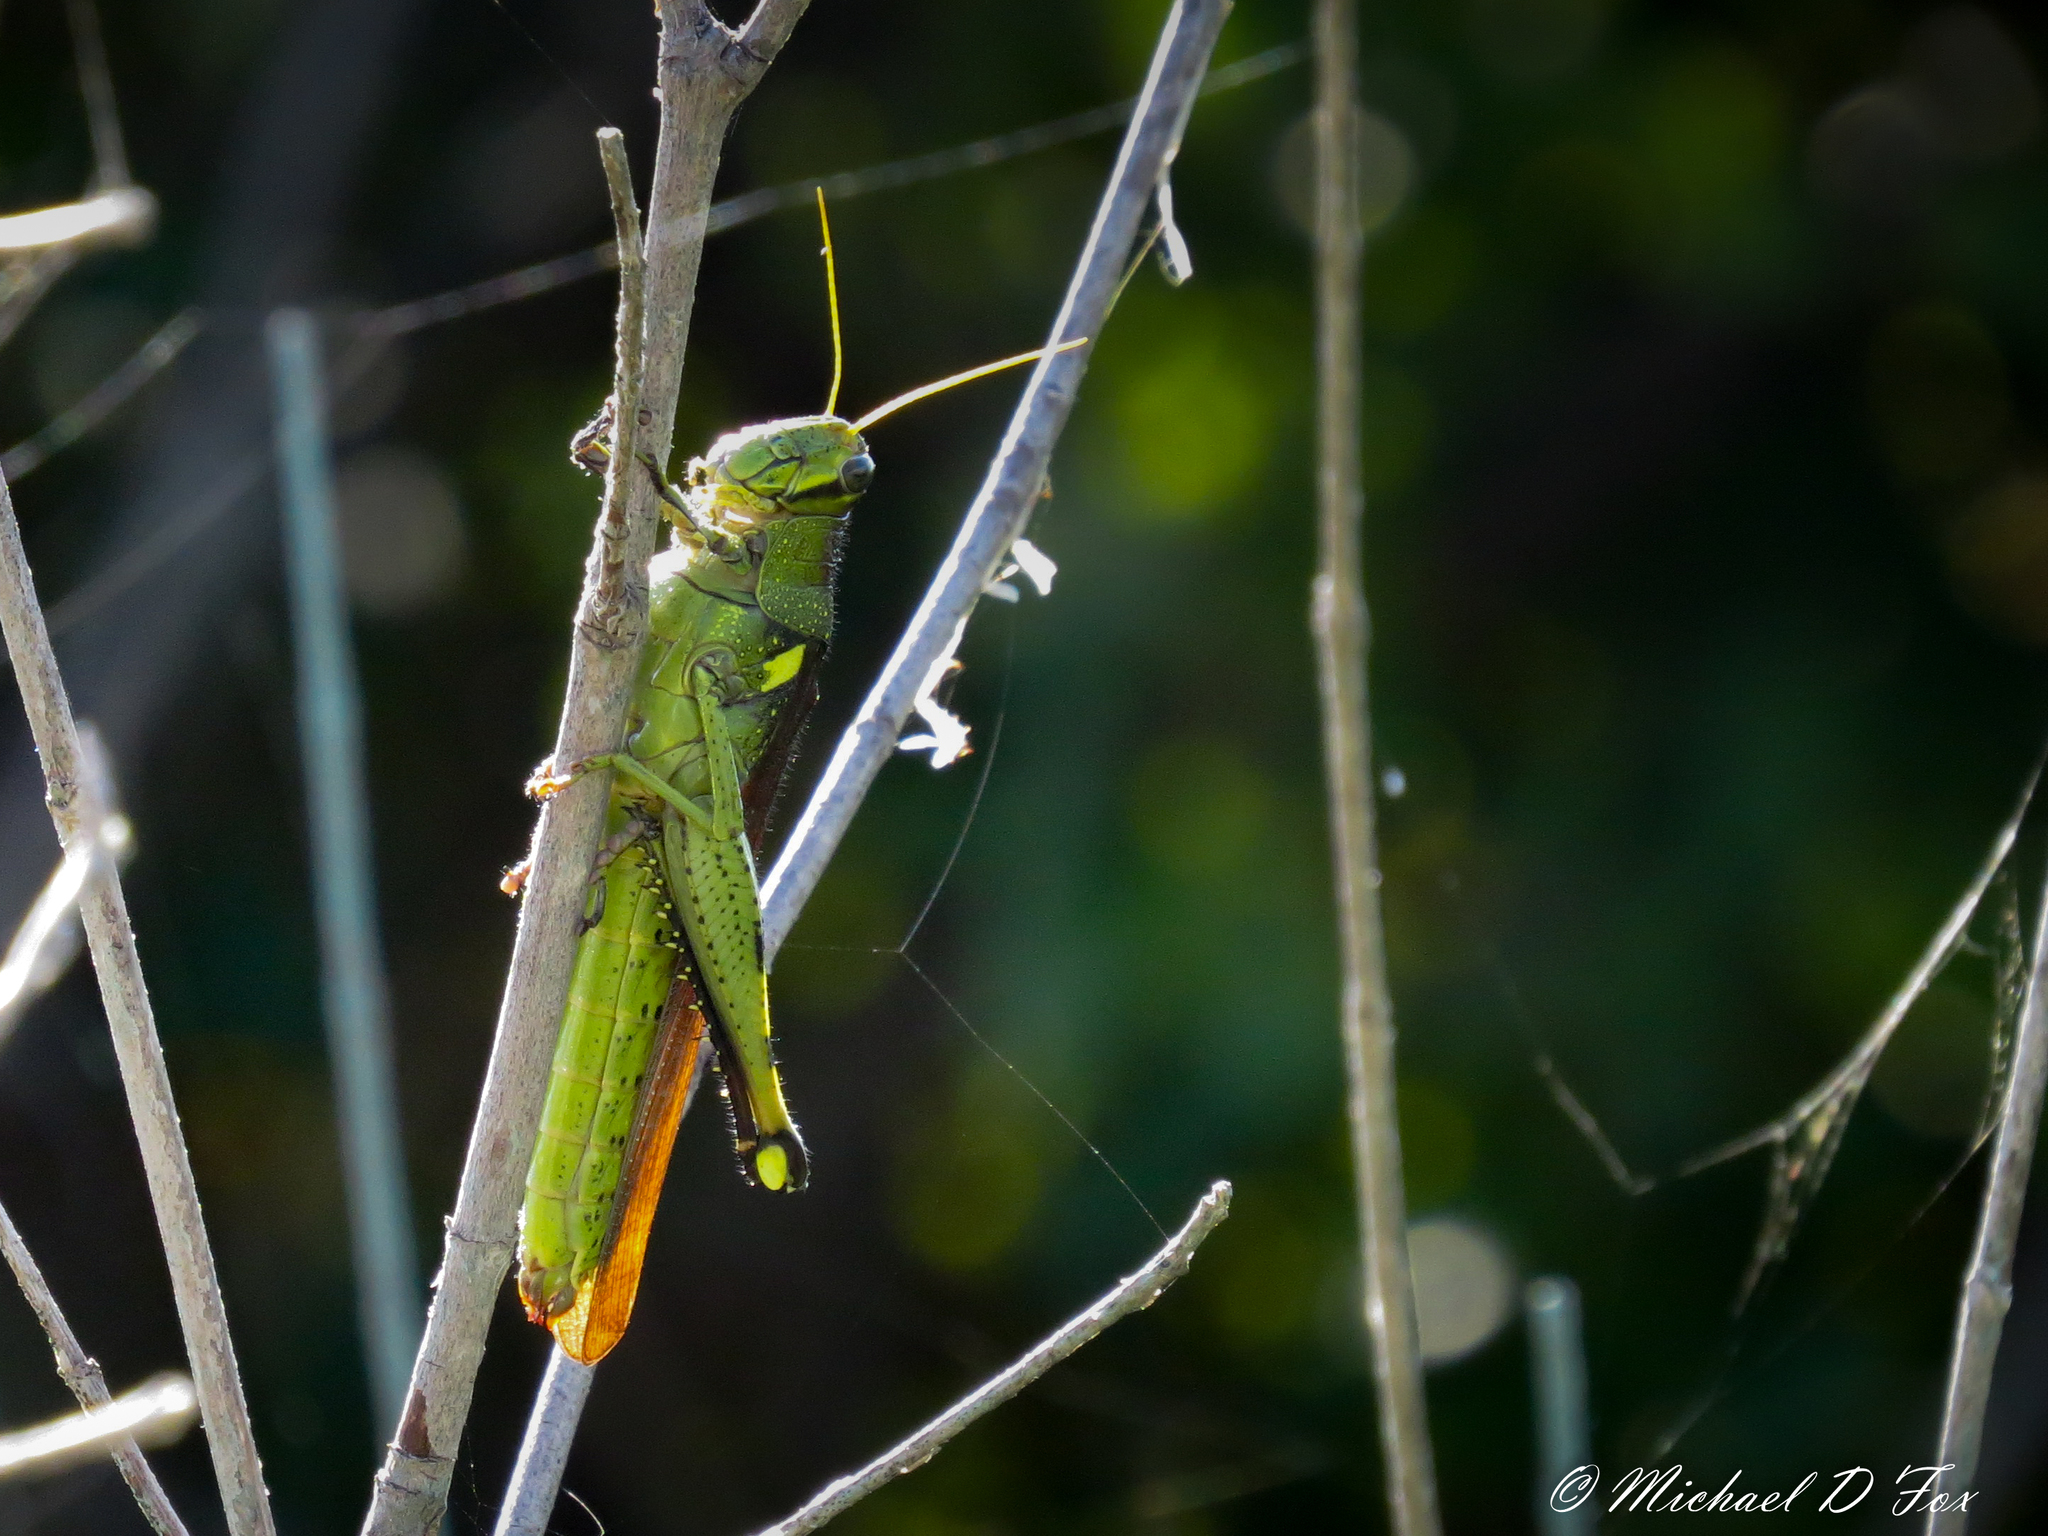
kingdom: Animalia
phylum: Arthropoda
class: Insecta
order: Orthoptera
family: Acrididae
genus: Schistocerca
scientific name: Schistocerca obscura
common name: Obscure bird grasshopper
